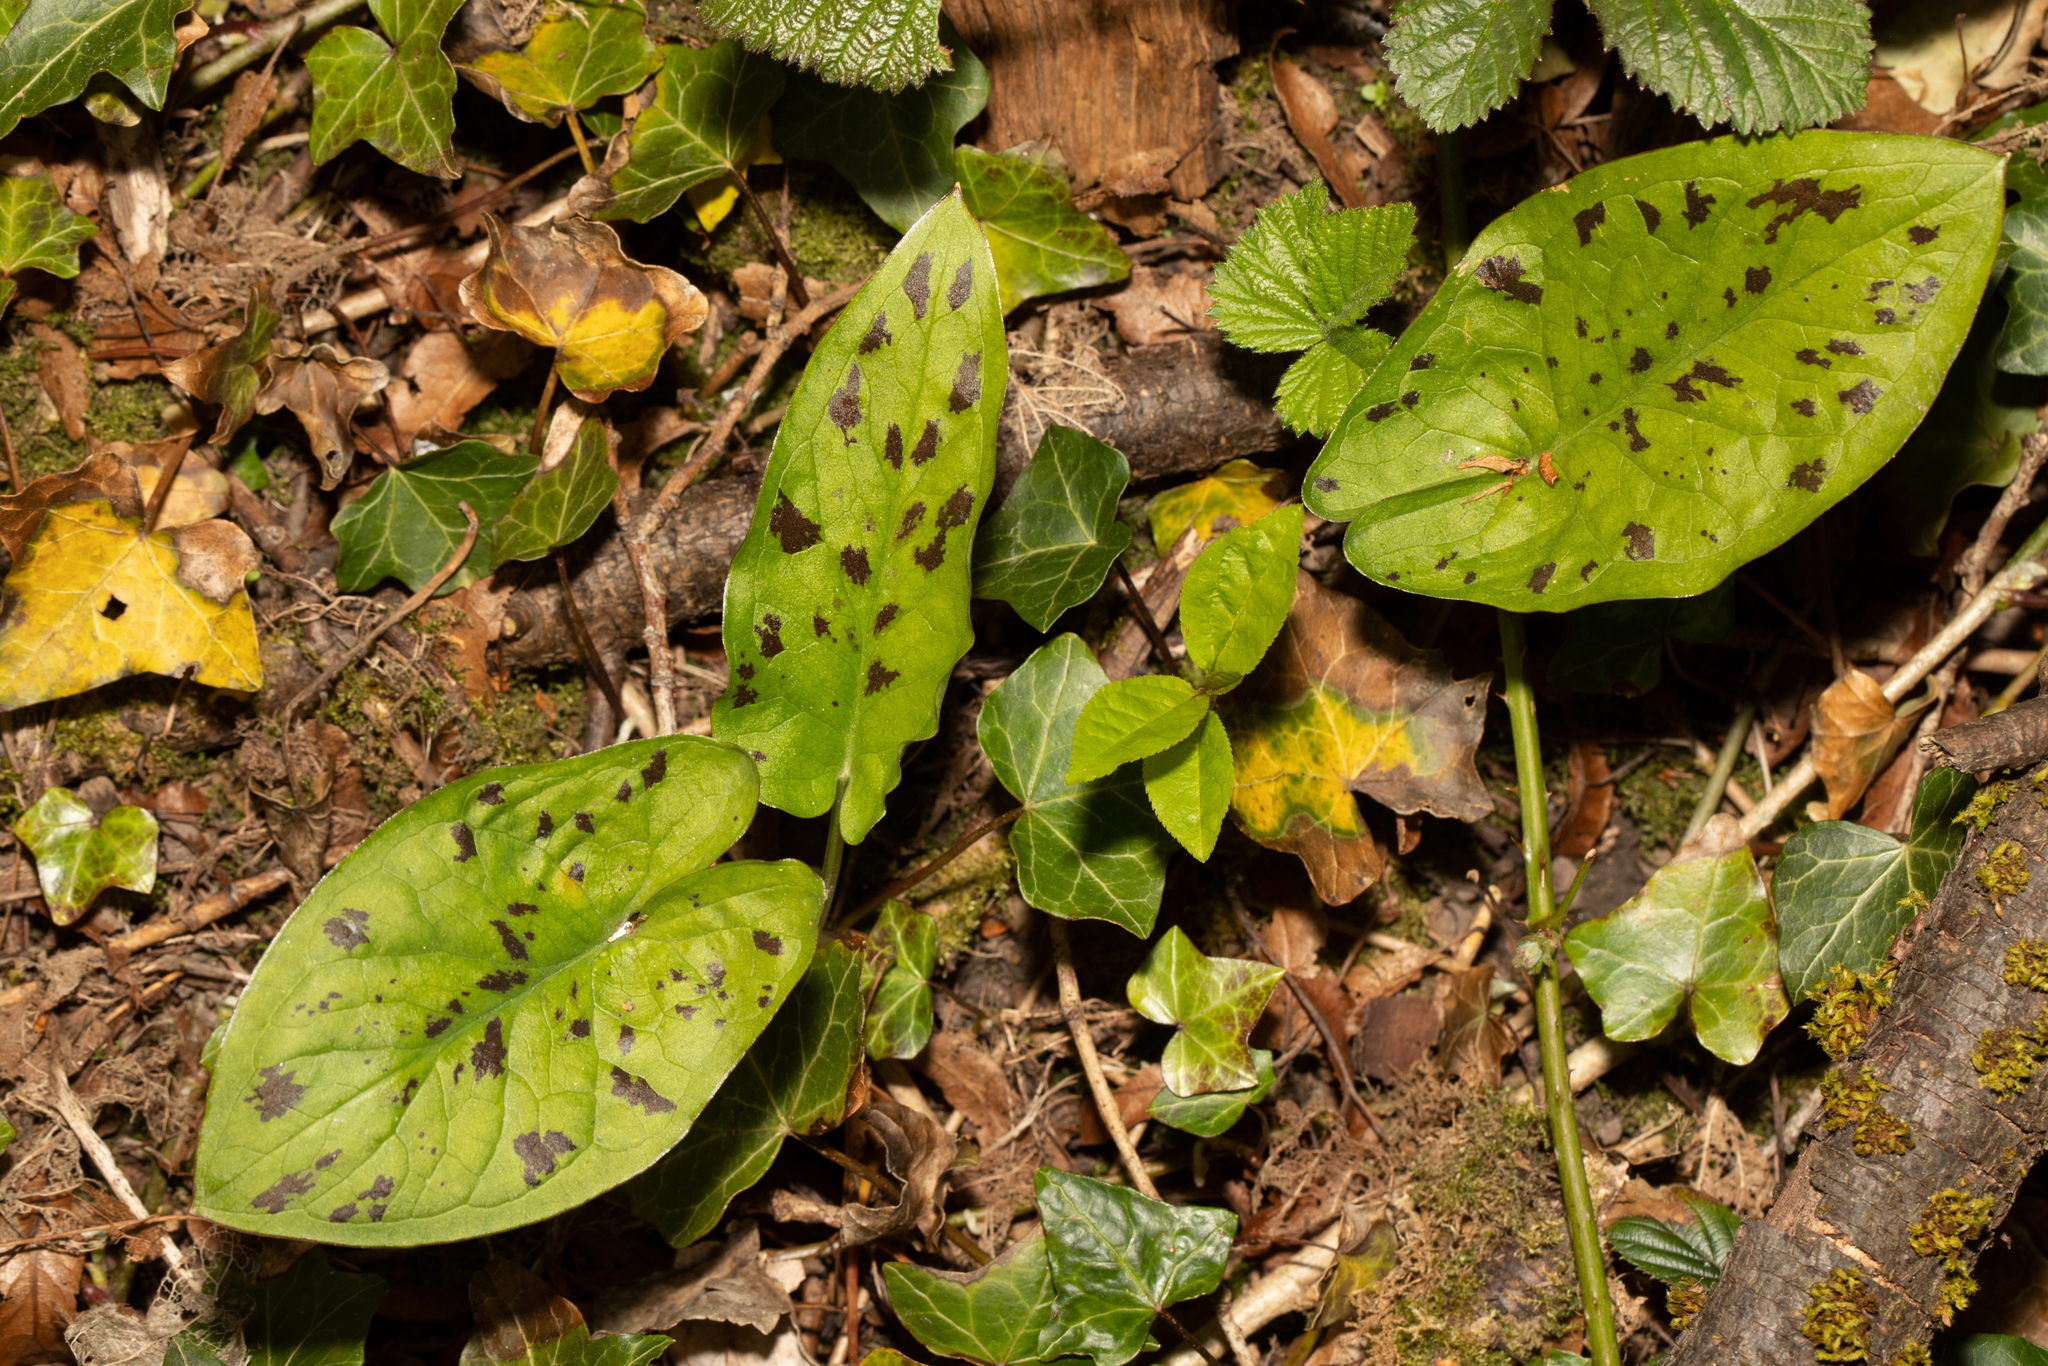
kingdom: Plantae
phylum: Tracheophyta
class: Liliopsida
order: Alismatales
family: Araceae
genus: Arum
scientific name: Arum maculatum
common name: Lords-and-ladies
